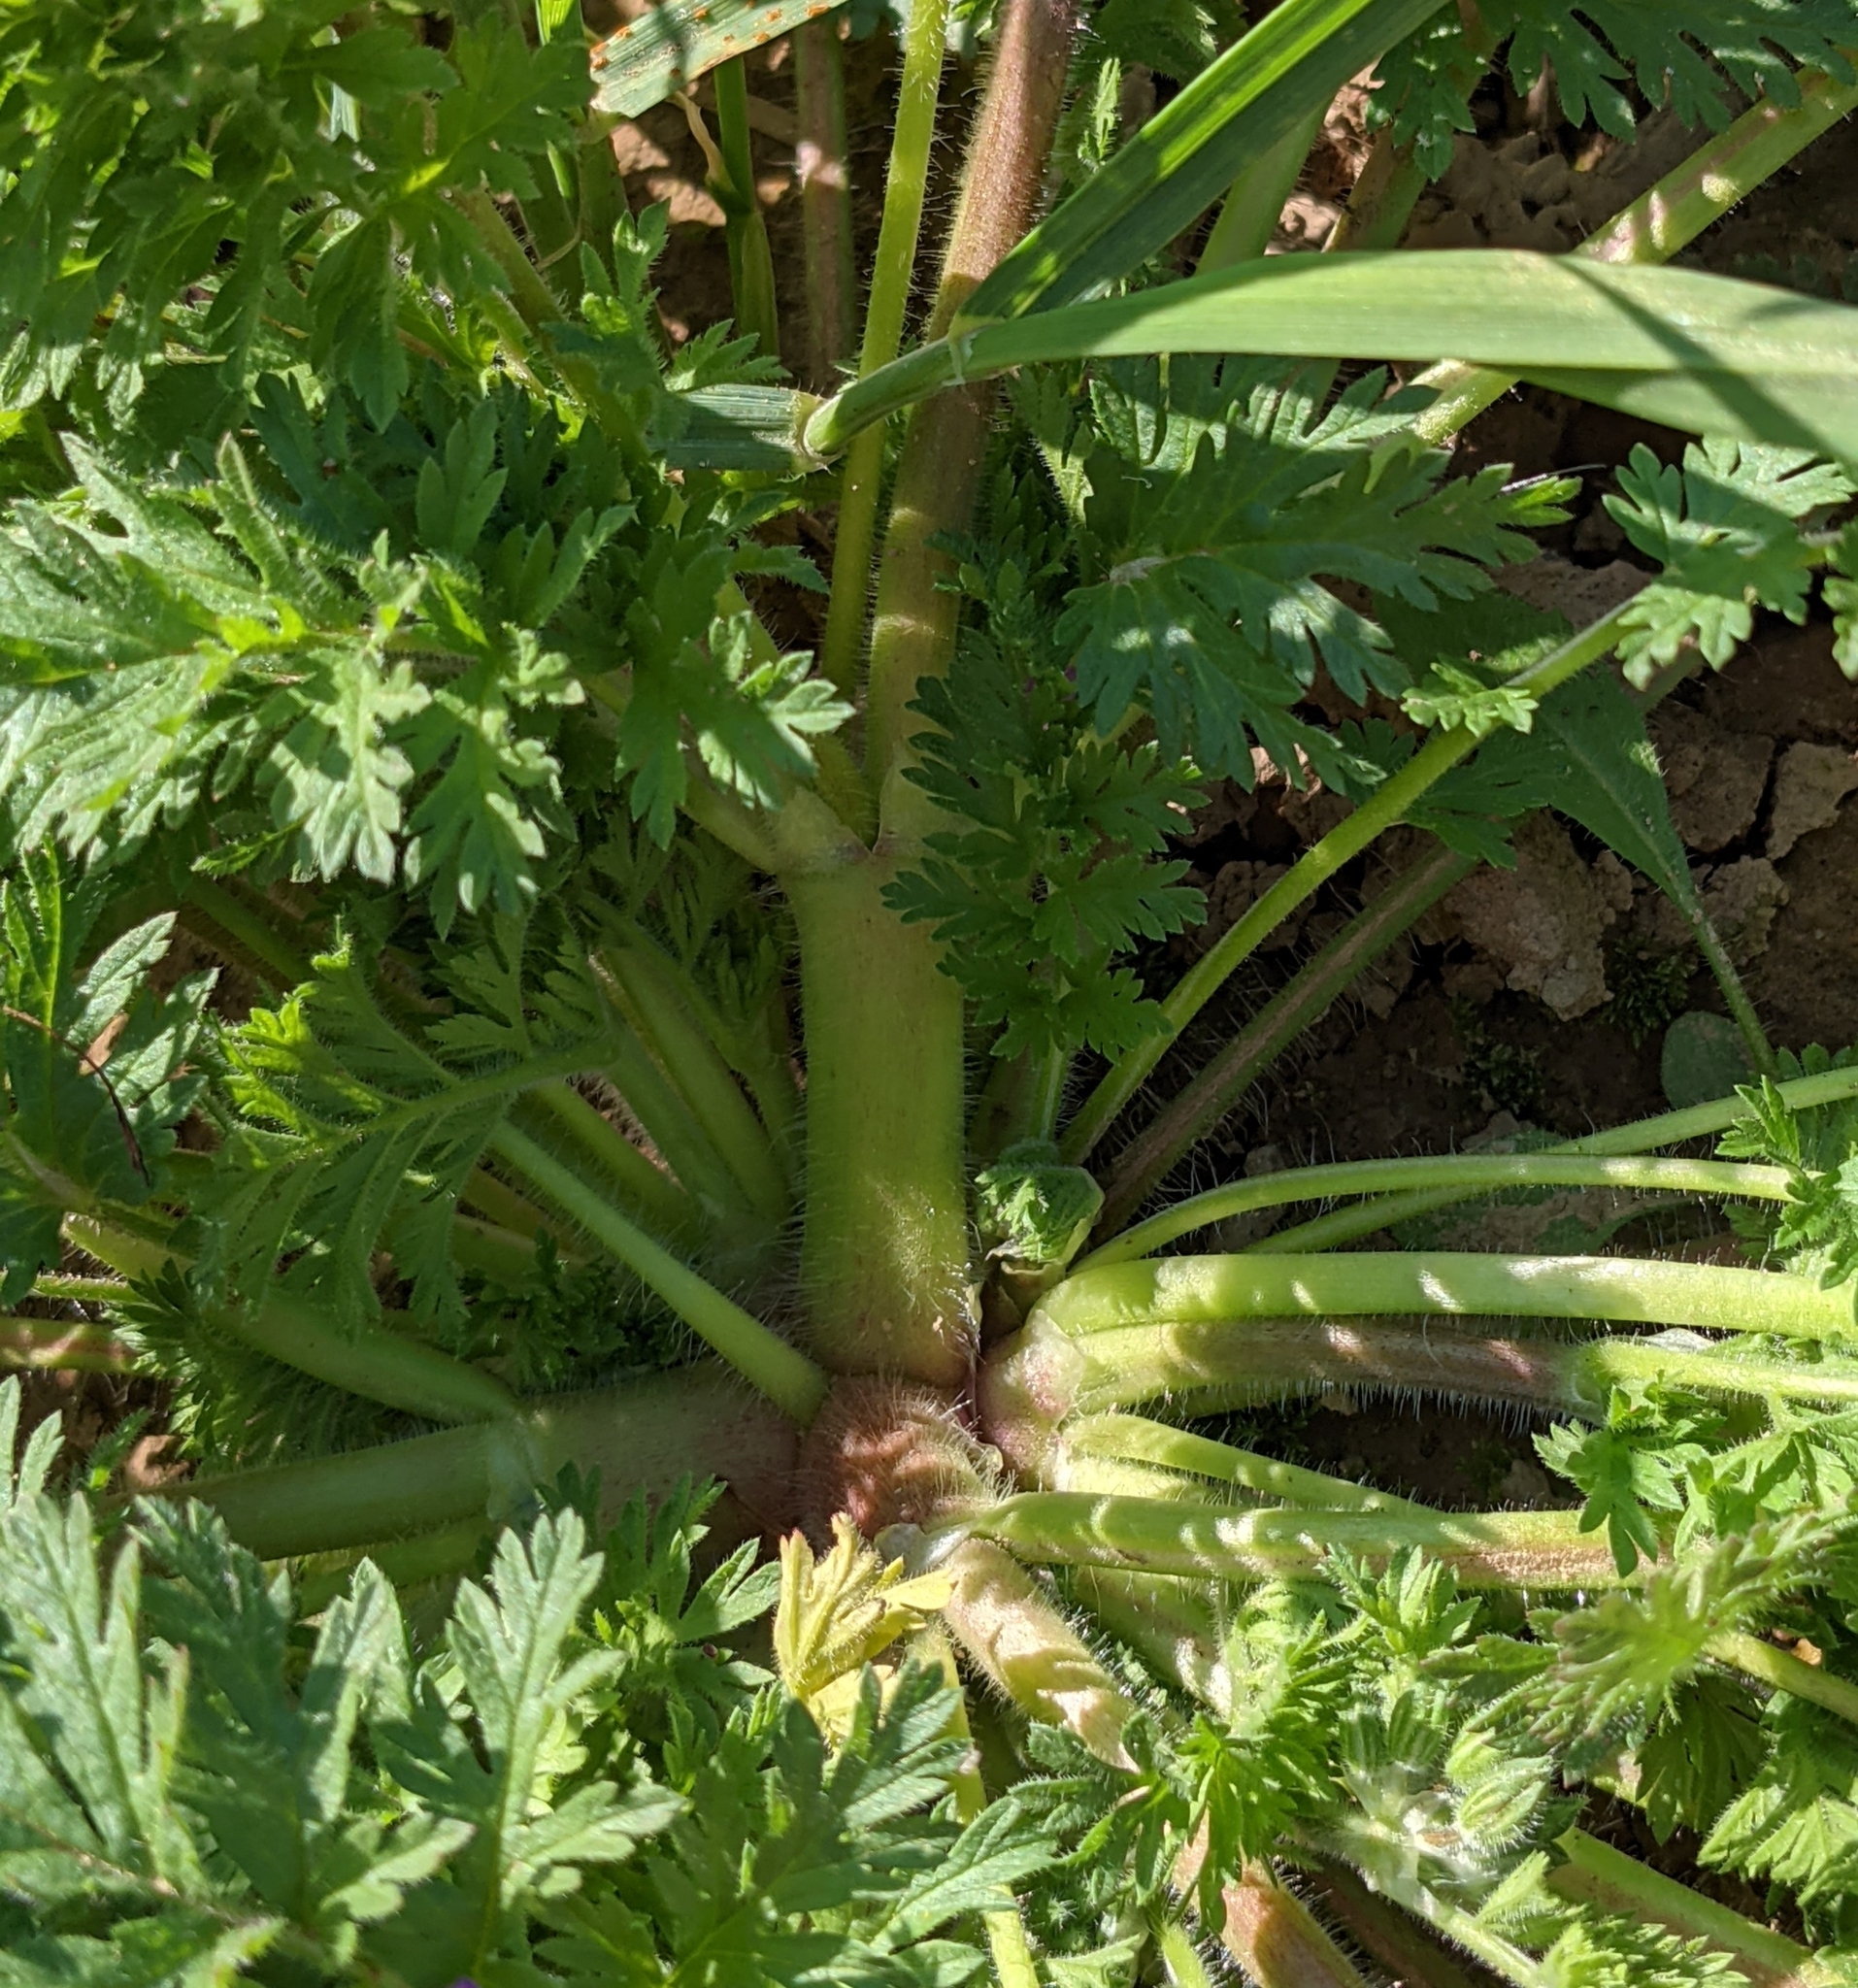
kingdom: Plantae
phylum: Tracheophyta
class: Magnoliopsida
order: Geraniales
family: Geraniaceae
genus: Erodium
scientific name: Erodium cicutarium
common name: Common stork's-bill
